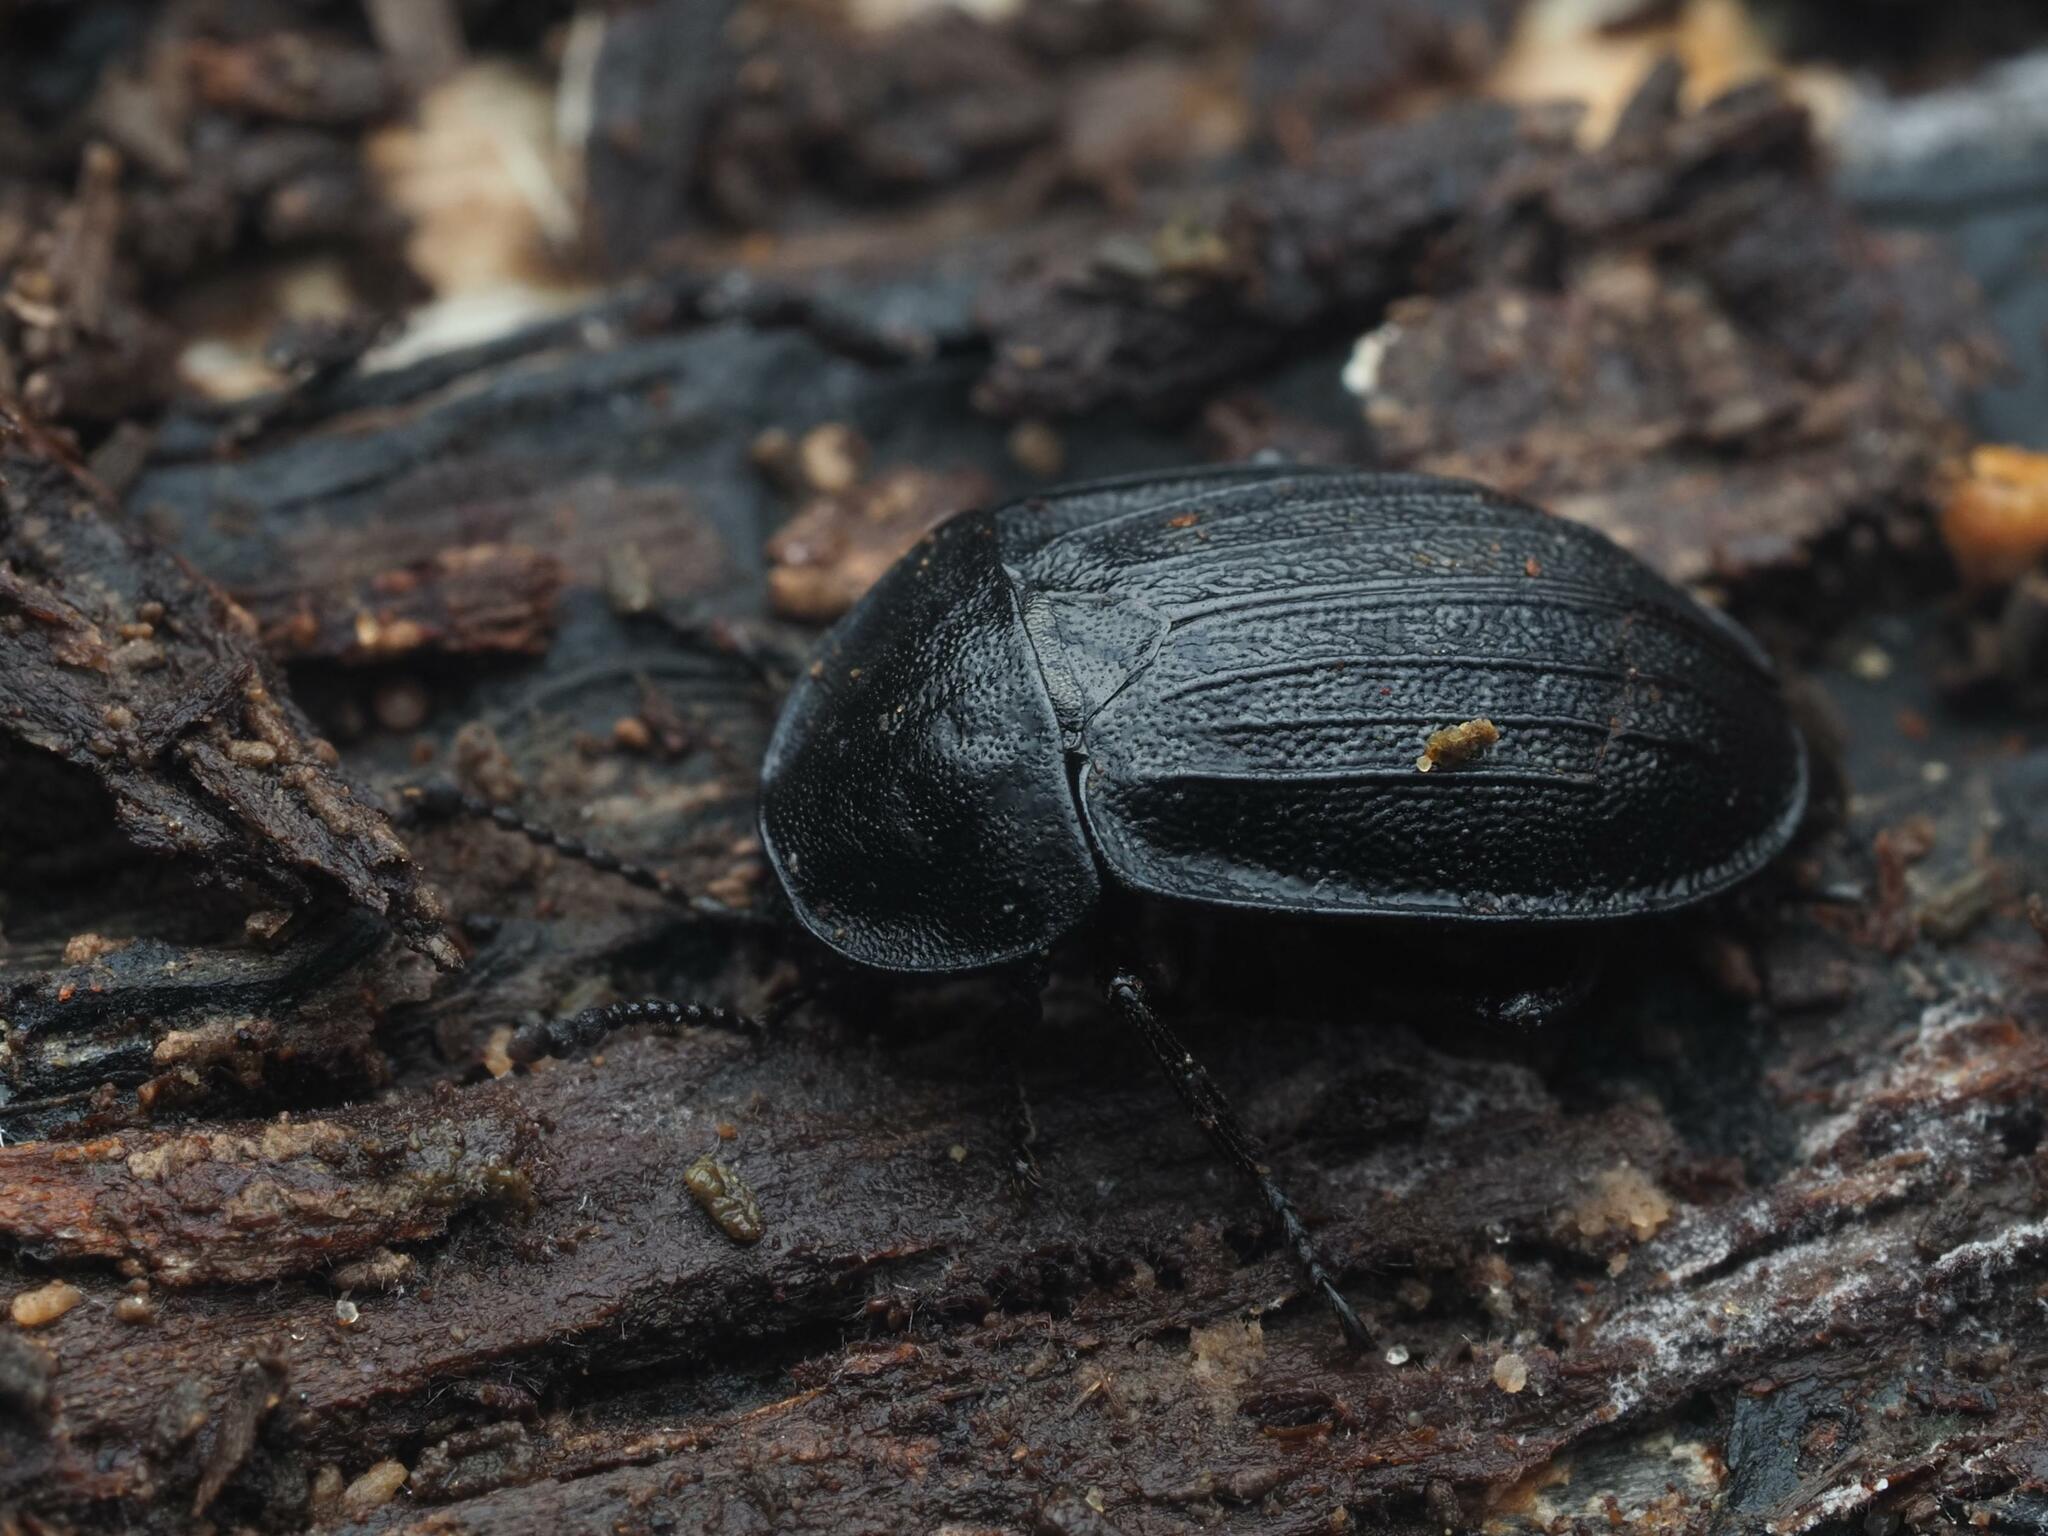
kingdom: Animalia
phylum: Arthropoda
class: Insecta
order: Coleoptera
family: Staphylinidae
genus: Silpha
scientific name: Silpha atrata
